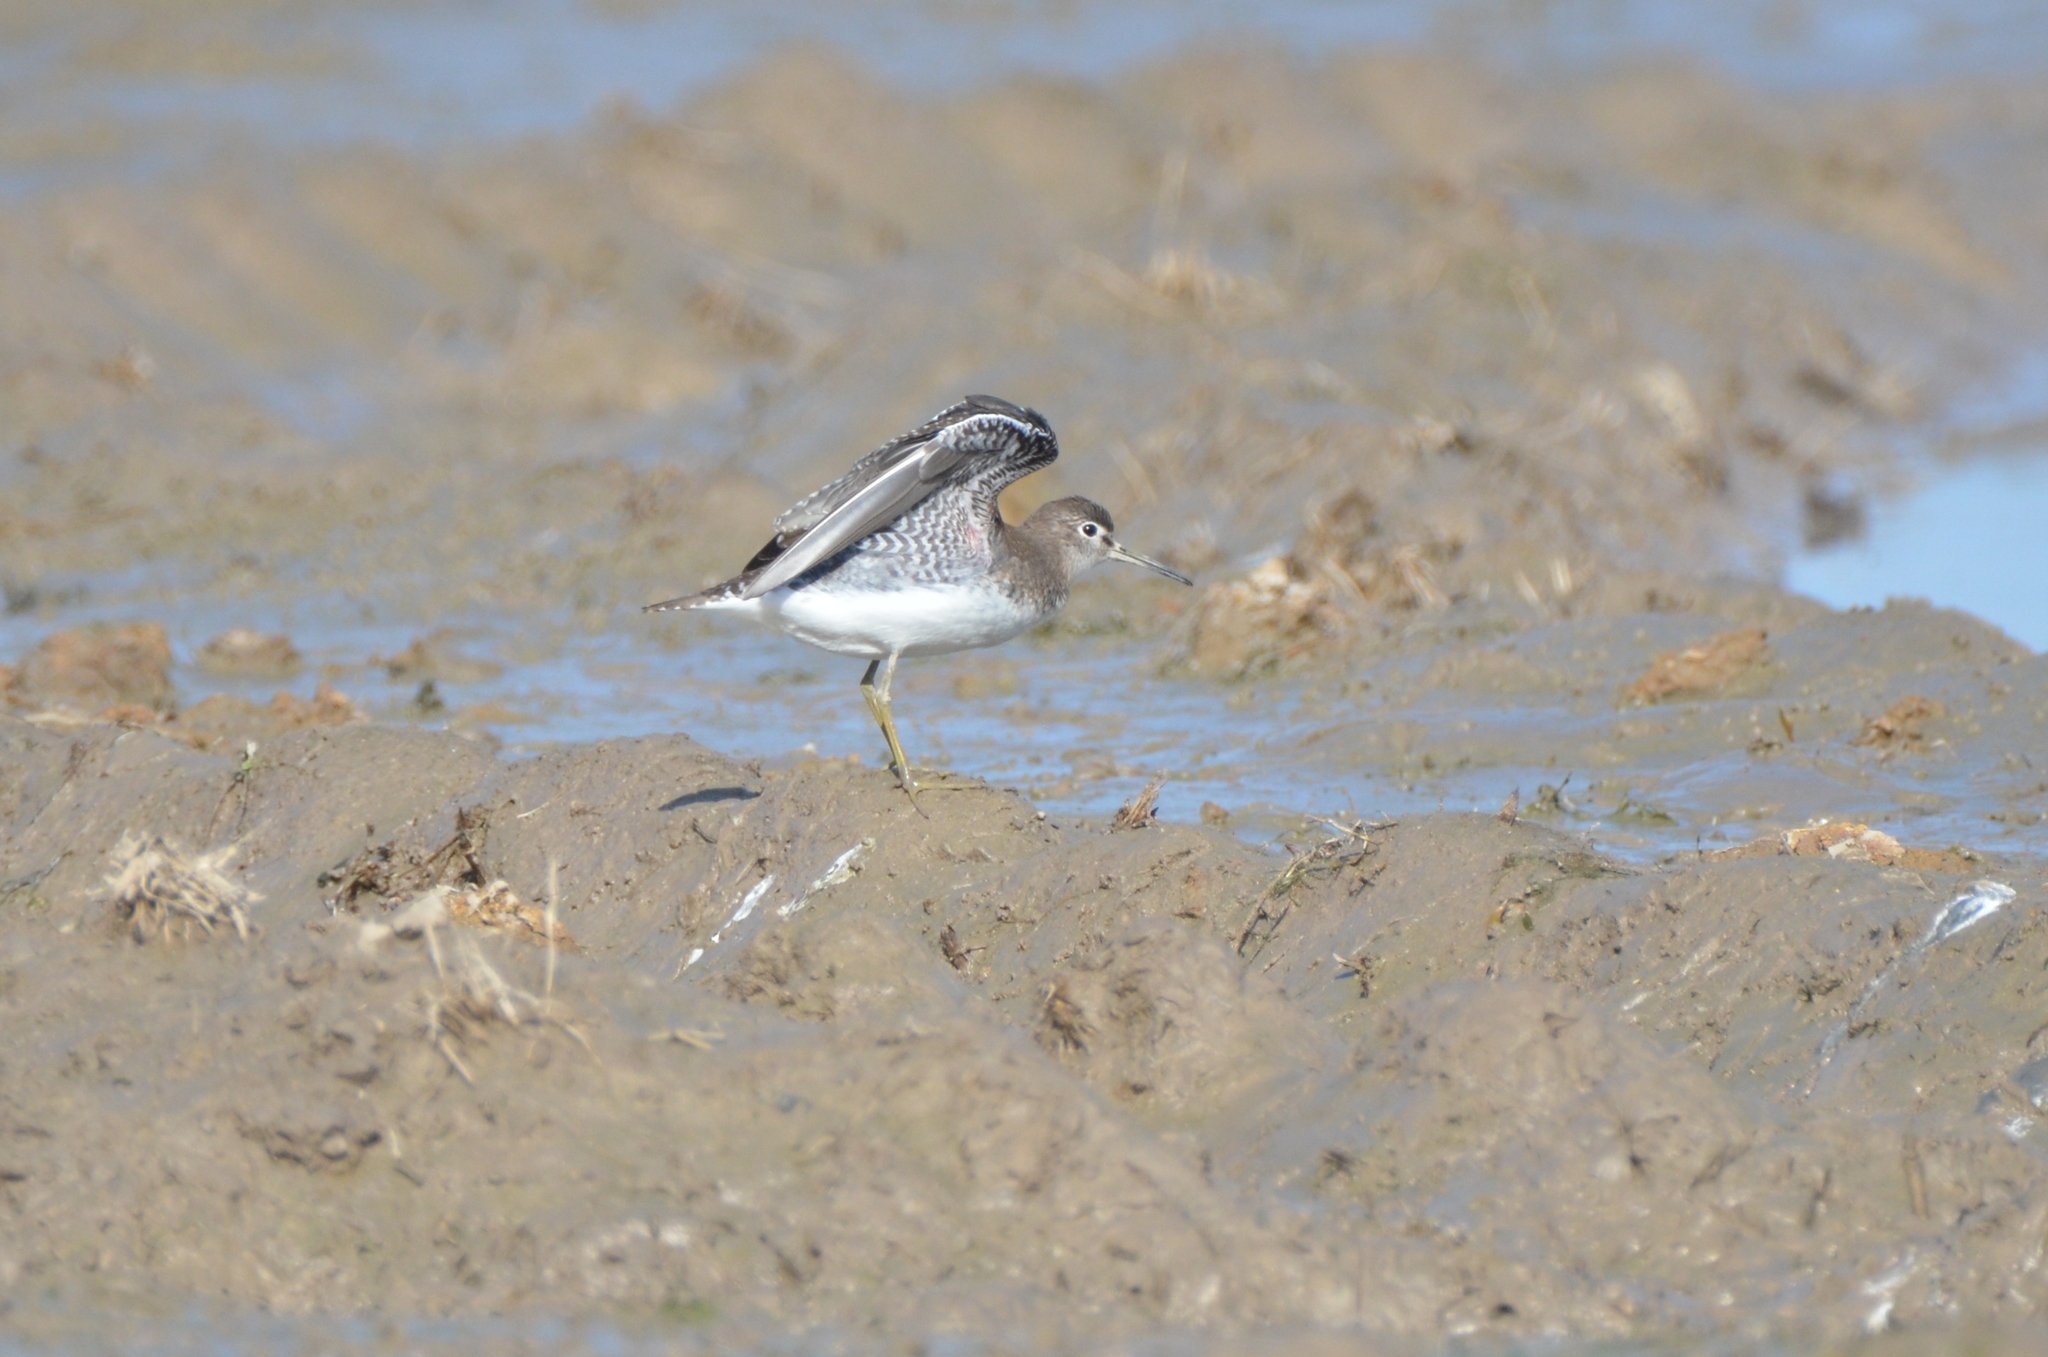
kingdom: Animalia
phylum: Chordata
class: Aves
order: Charadriiformes
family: Scolopacidae
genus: Tringa
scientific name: Tringa solitaria
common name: Solitary sandpiper
